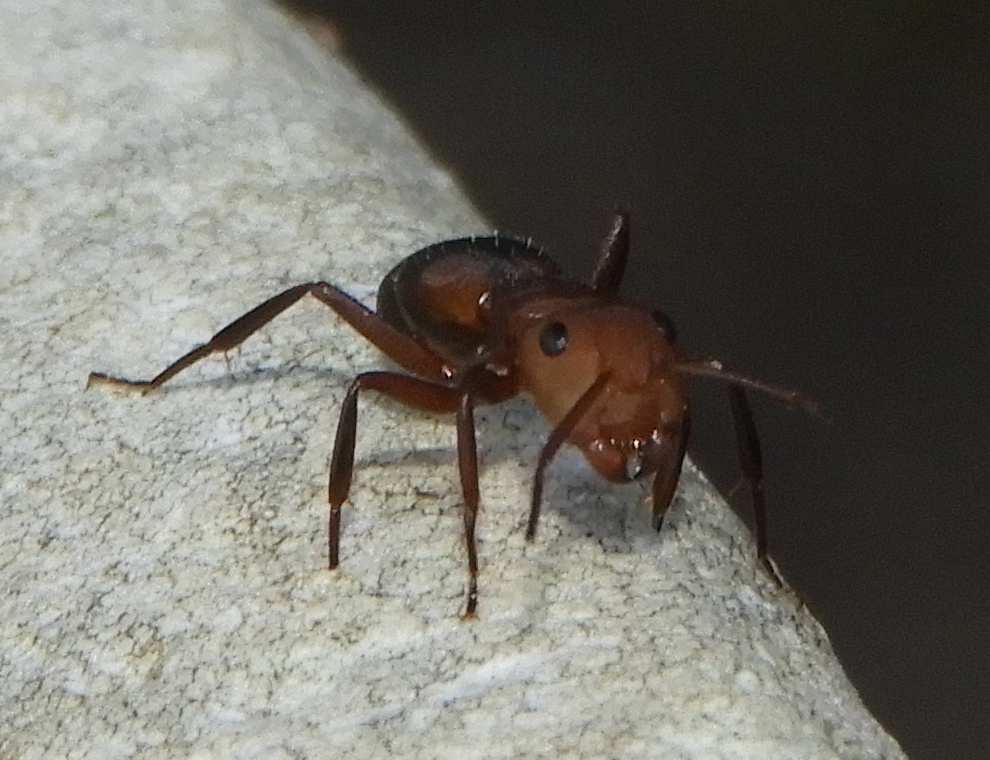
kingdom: Animalia
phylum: Arthropoda
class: Insecta
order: Hymenoptera
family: Formicidae
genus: Camponotus
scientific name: Camponotus rectangularis
